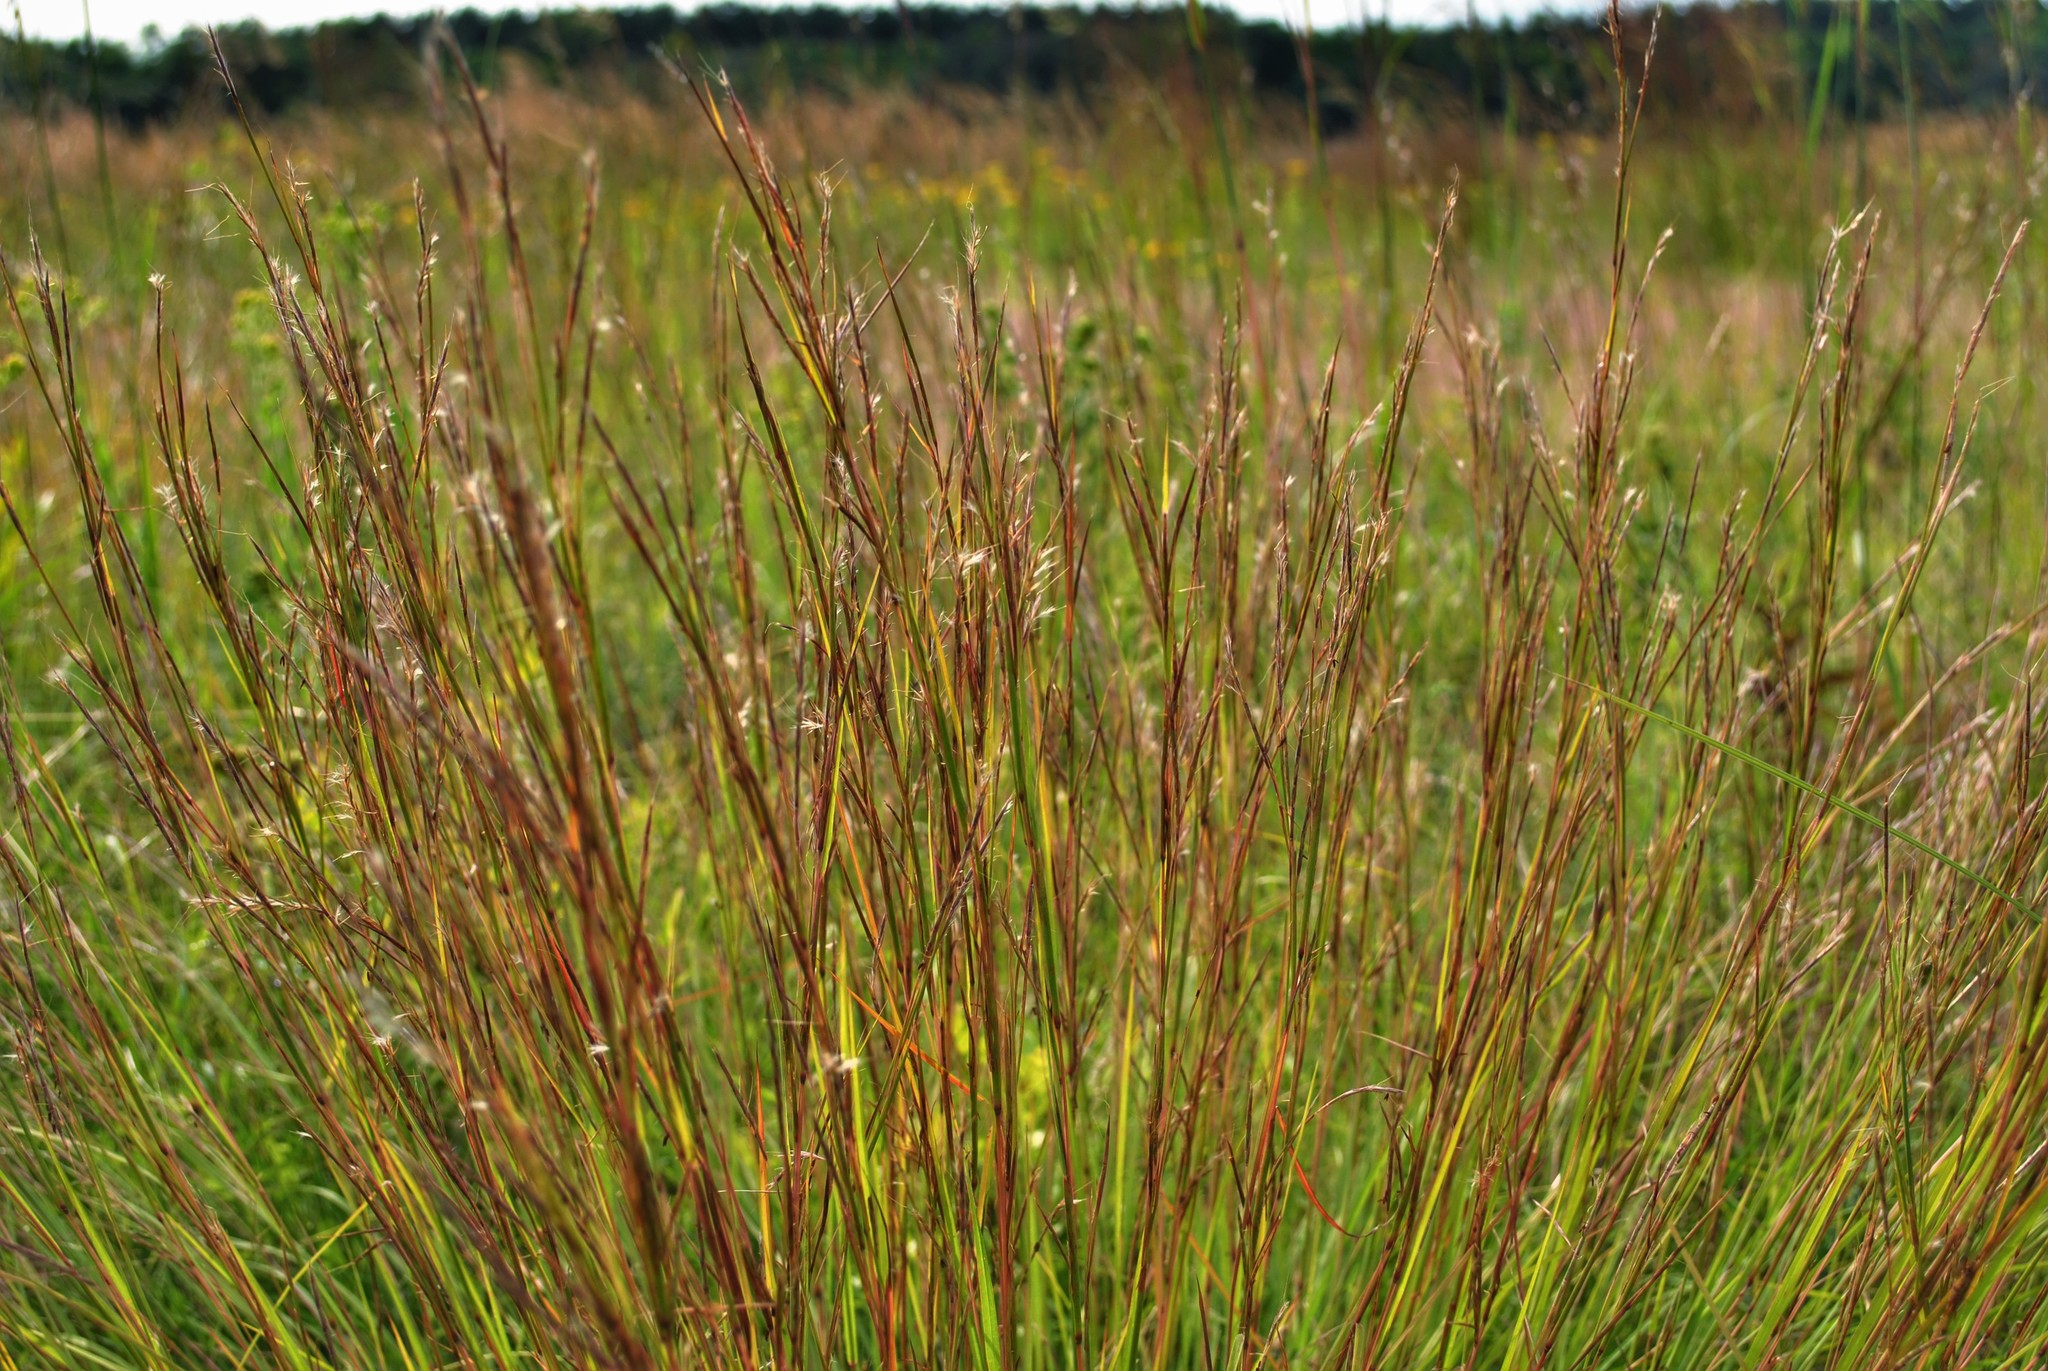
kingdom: Plantae
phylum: Tracheophyta
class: Liliopsida
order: Poales
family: Poaceae
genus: Schizachyrium
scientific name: Schizachyrium scoparium
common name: Little bluestem
